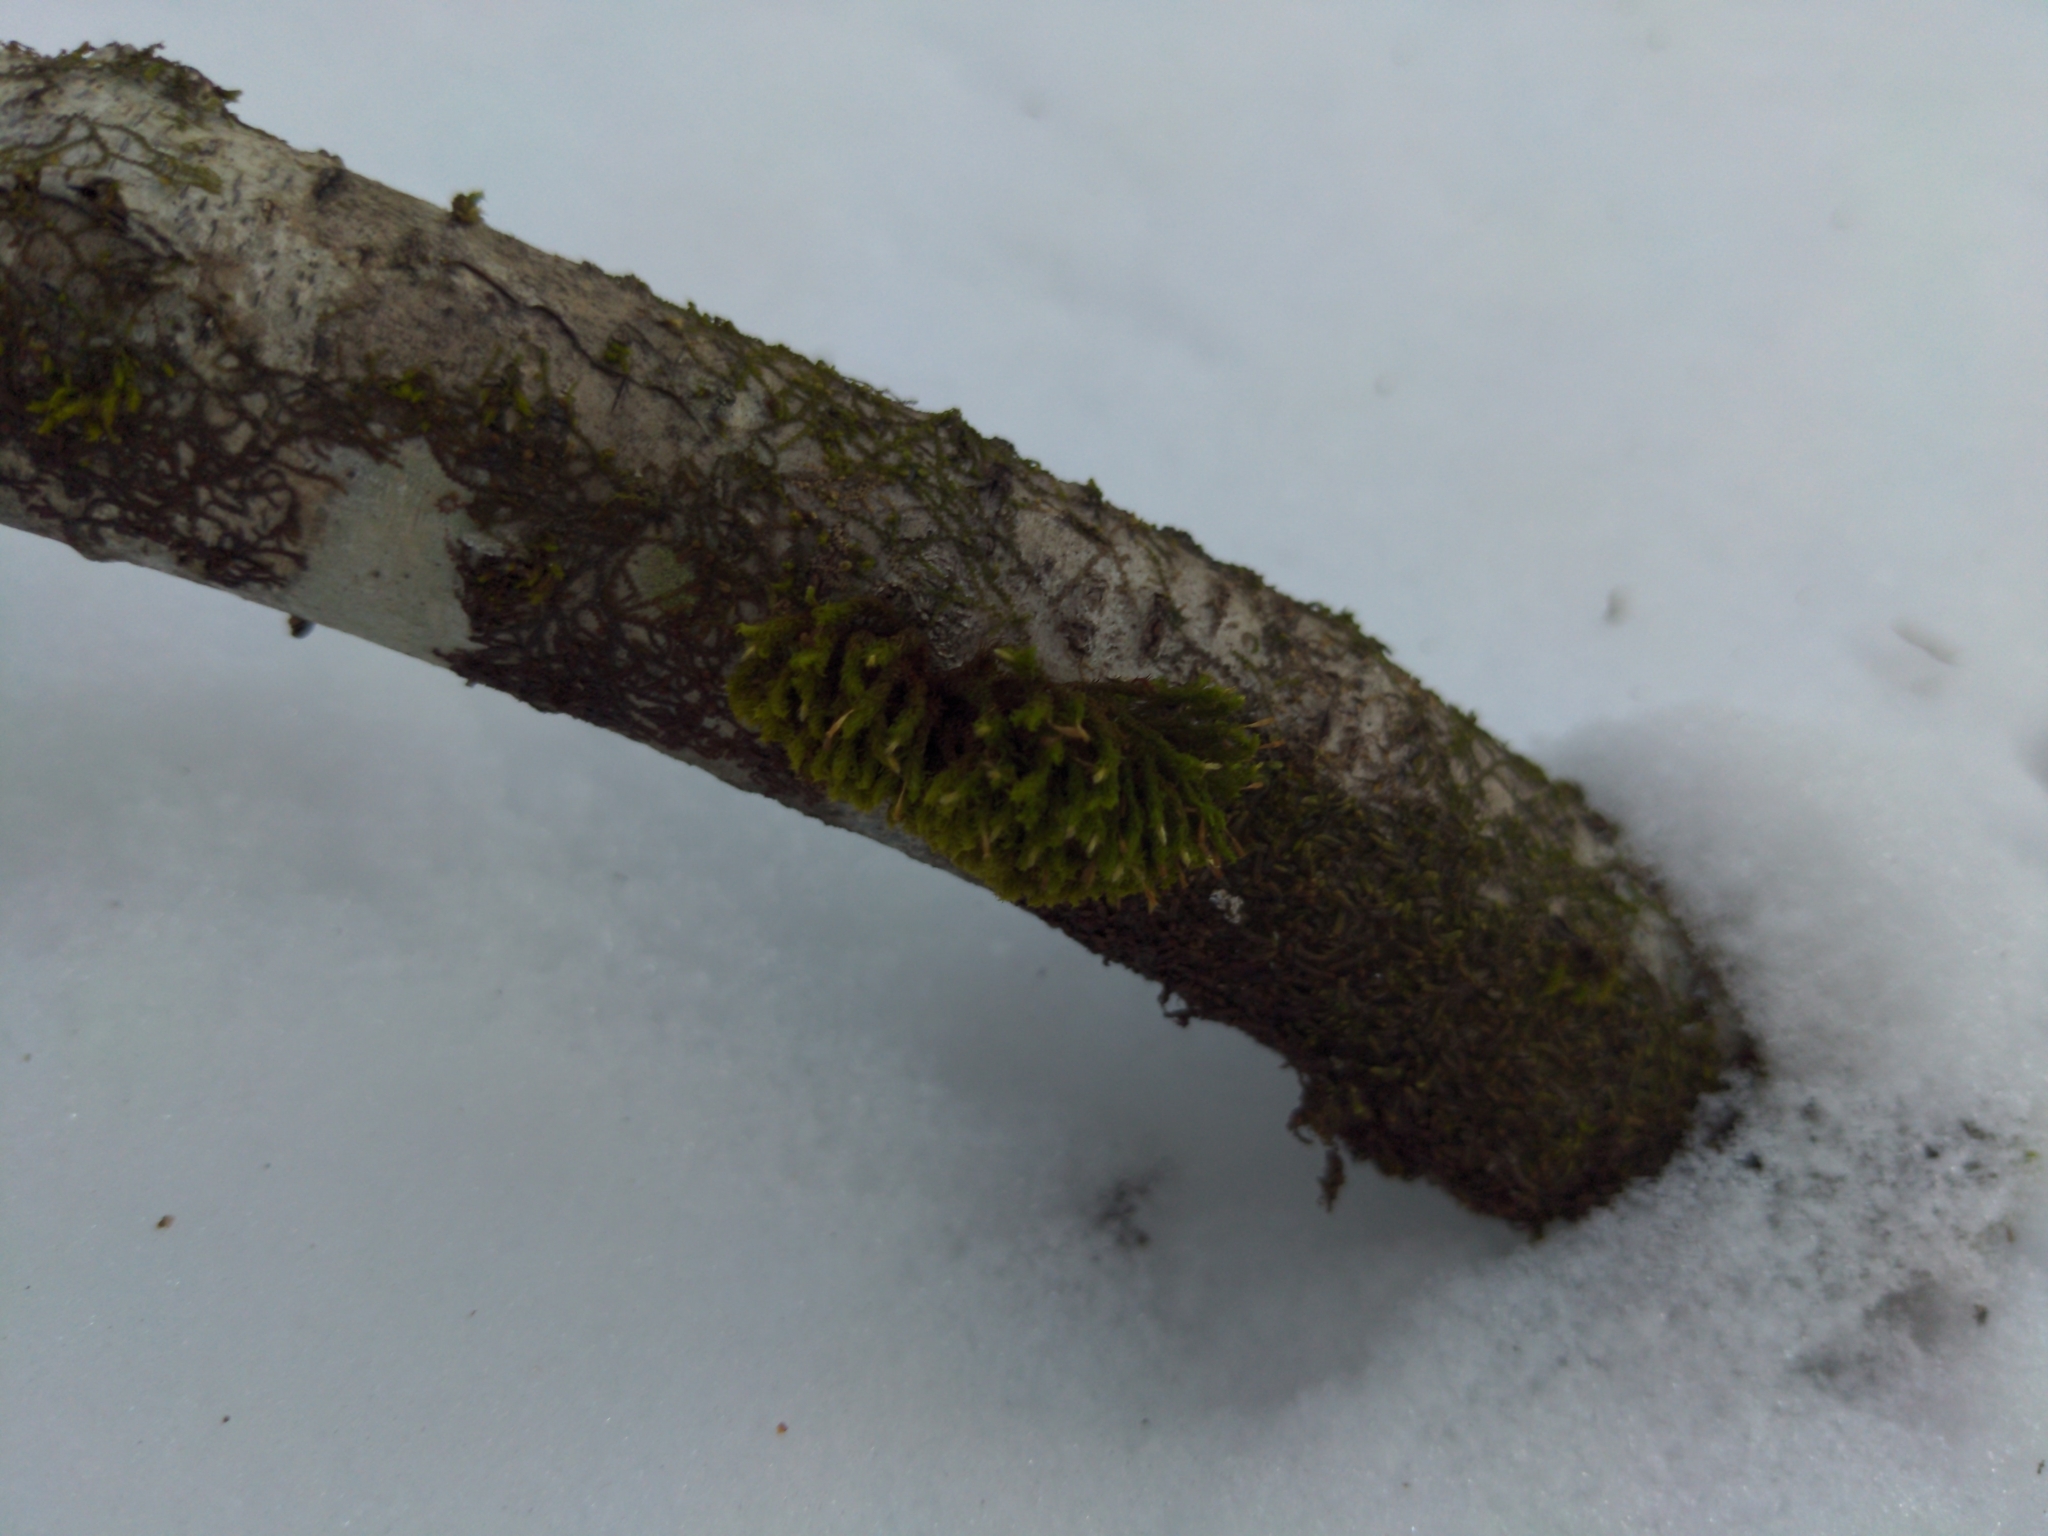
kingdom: Plantae
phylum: Bryophyta
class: Bryopsida
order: Orthotrichales
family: Orthotrichaceae
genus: Ulota
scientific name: Ulota crispa
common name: Crisped pincushion moss
